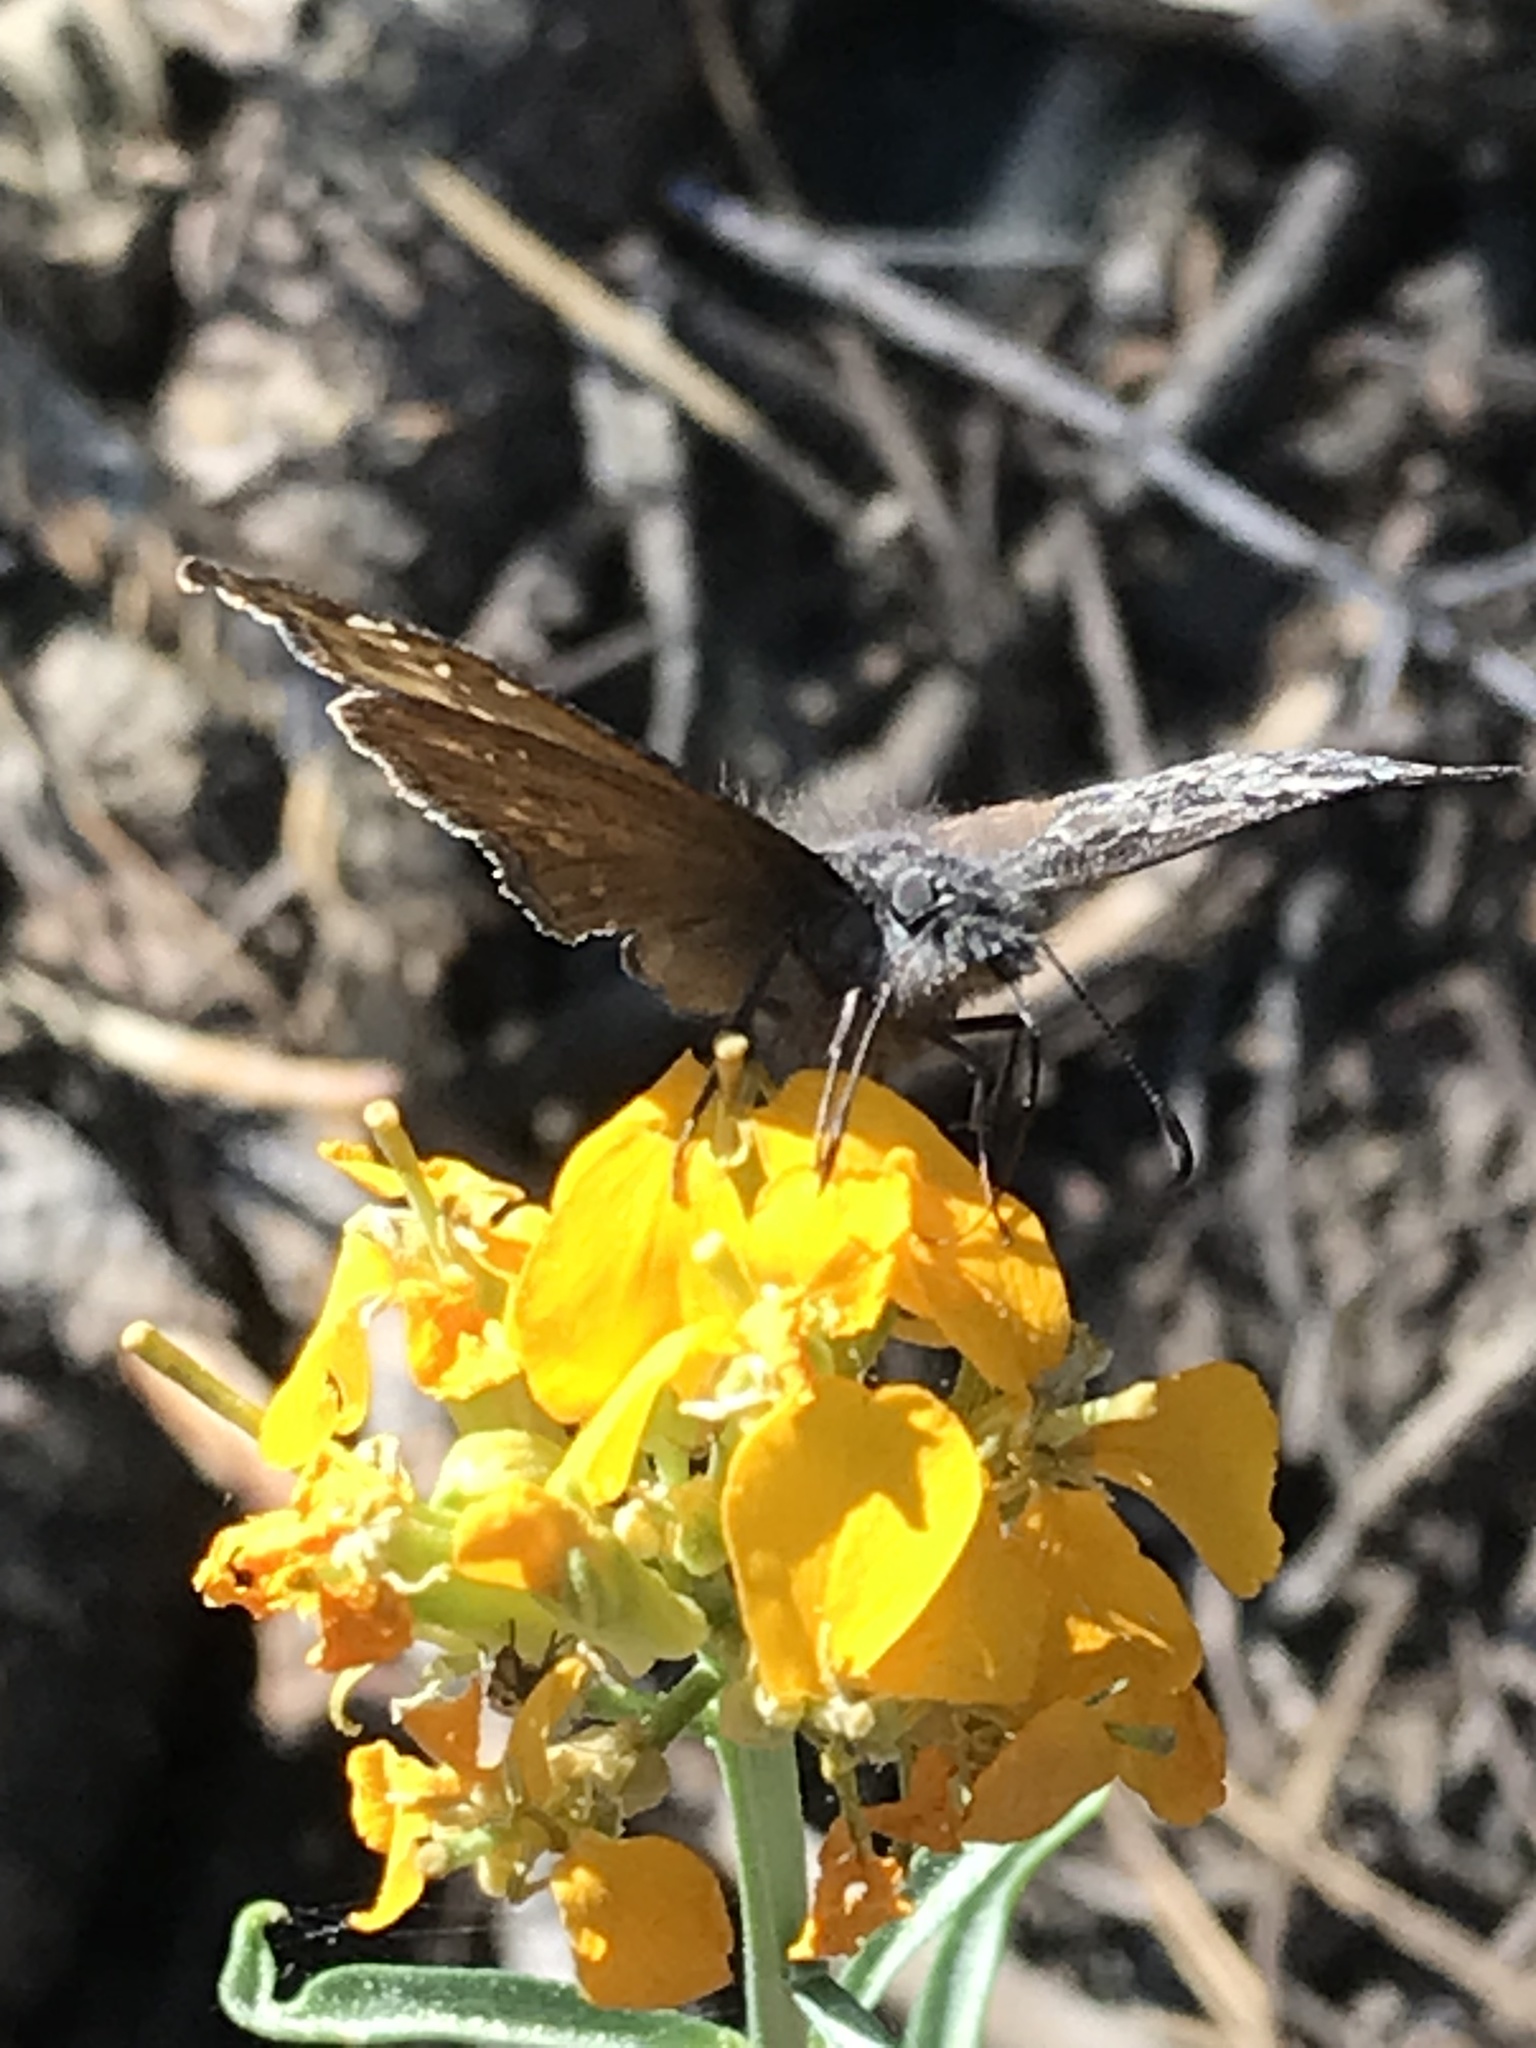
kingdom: Animalia
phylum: Arthropoda
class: Insecta
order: Lepidoptera
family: Hesperiidae
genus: Erynnis
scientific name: Erynnis propertius
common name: Propertius duskywing
